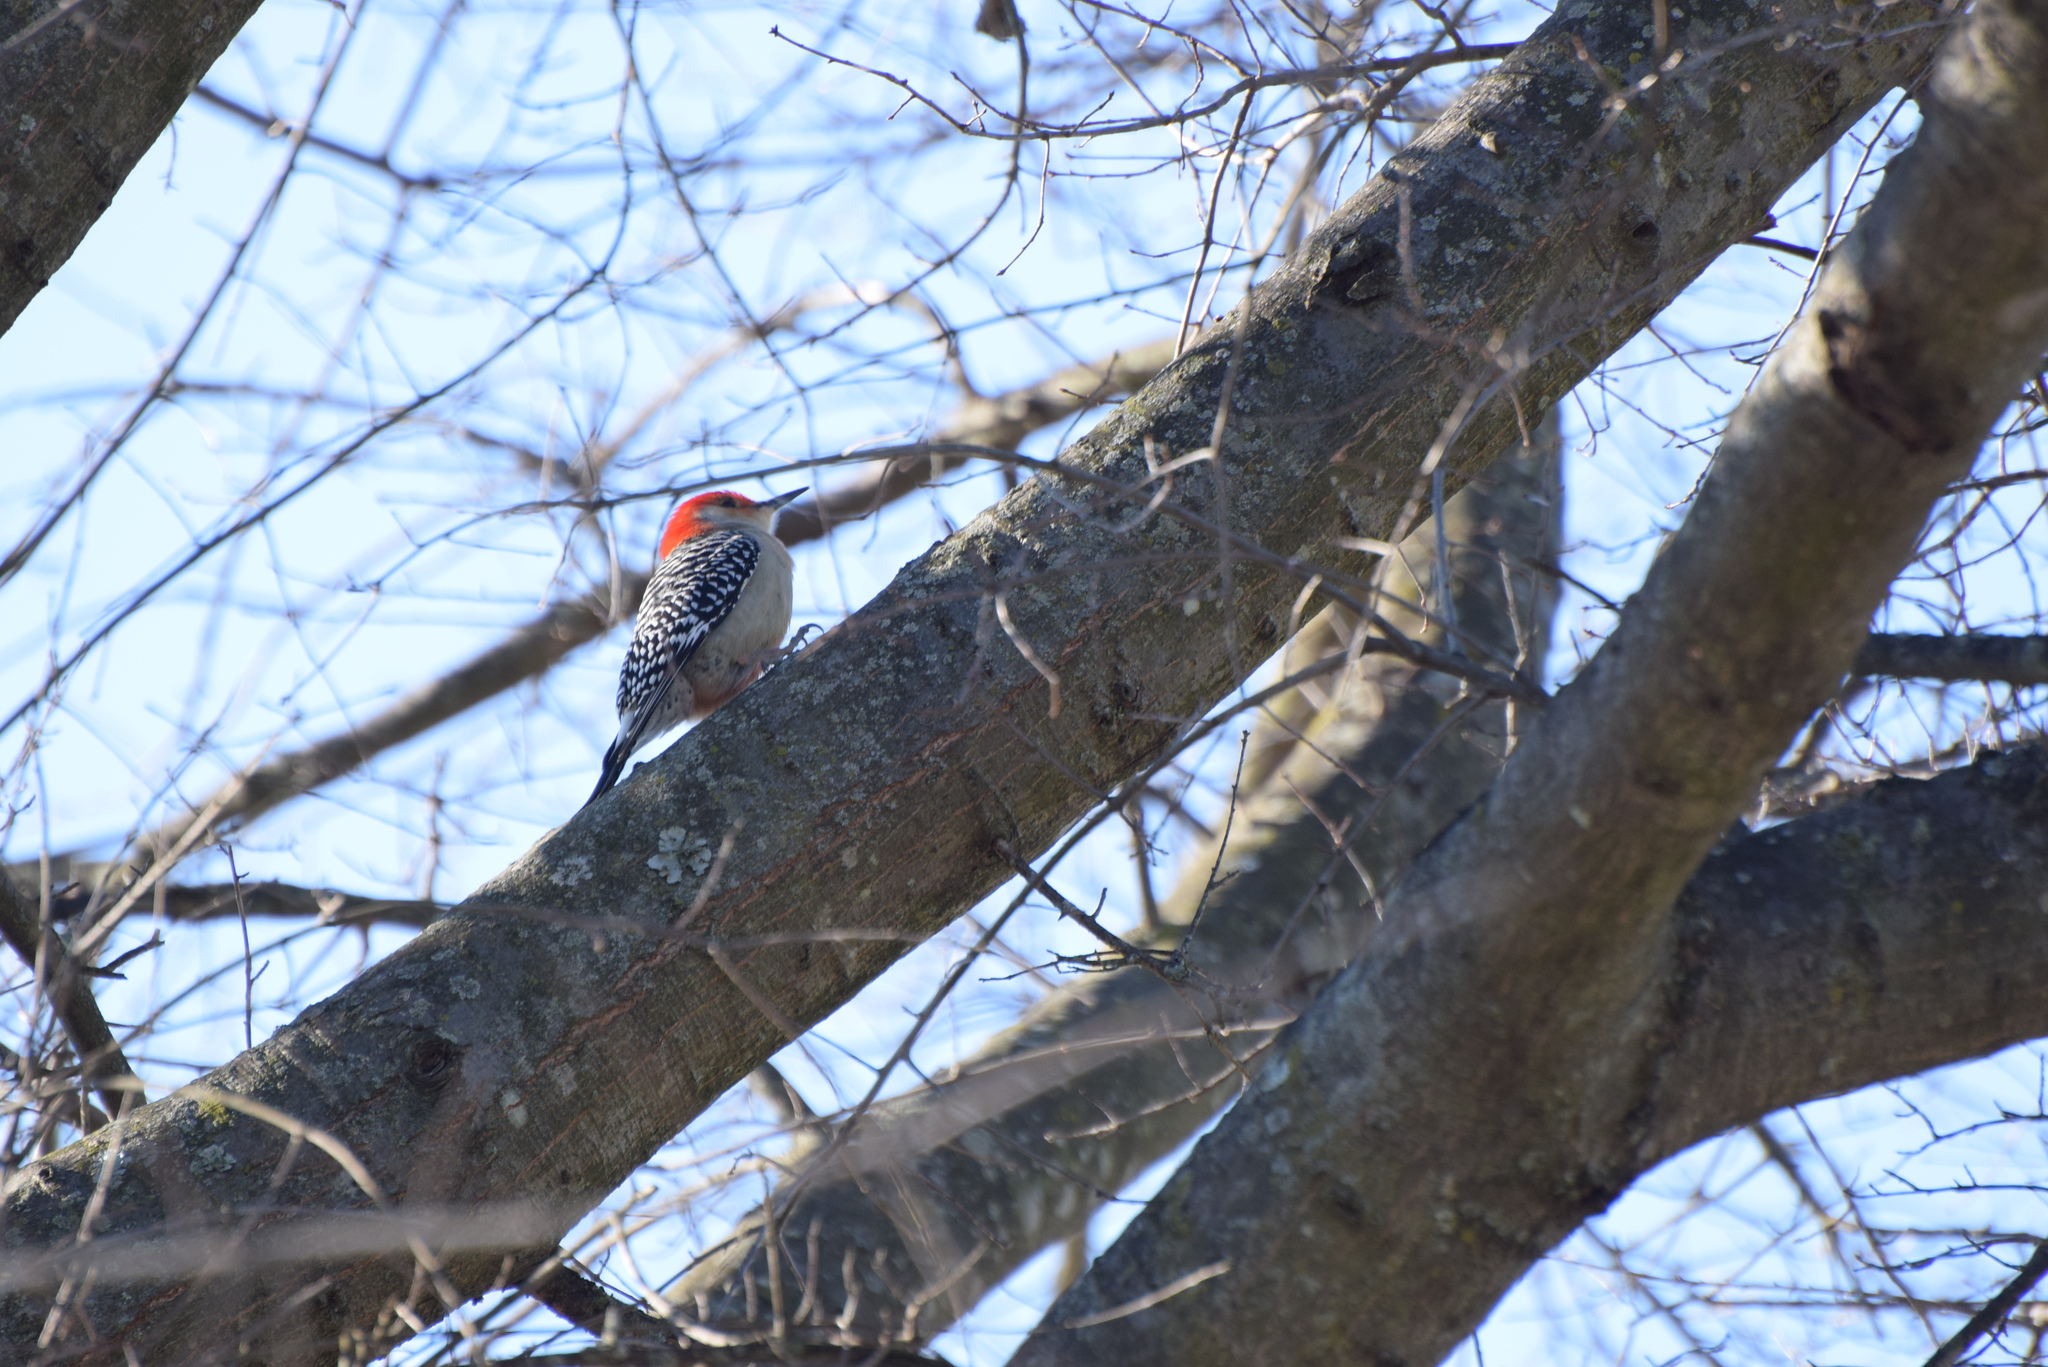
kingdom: Animalia
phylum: Chordata
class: Aves
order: Piciformes
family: Picidae
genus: Melanerpes
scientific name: Melanerpes carolinus
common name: Red-bellied woodpecker
